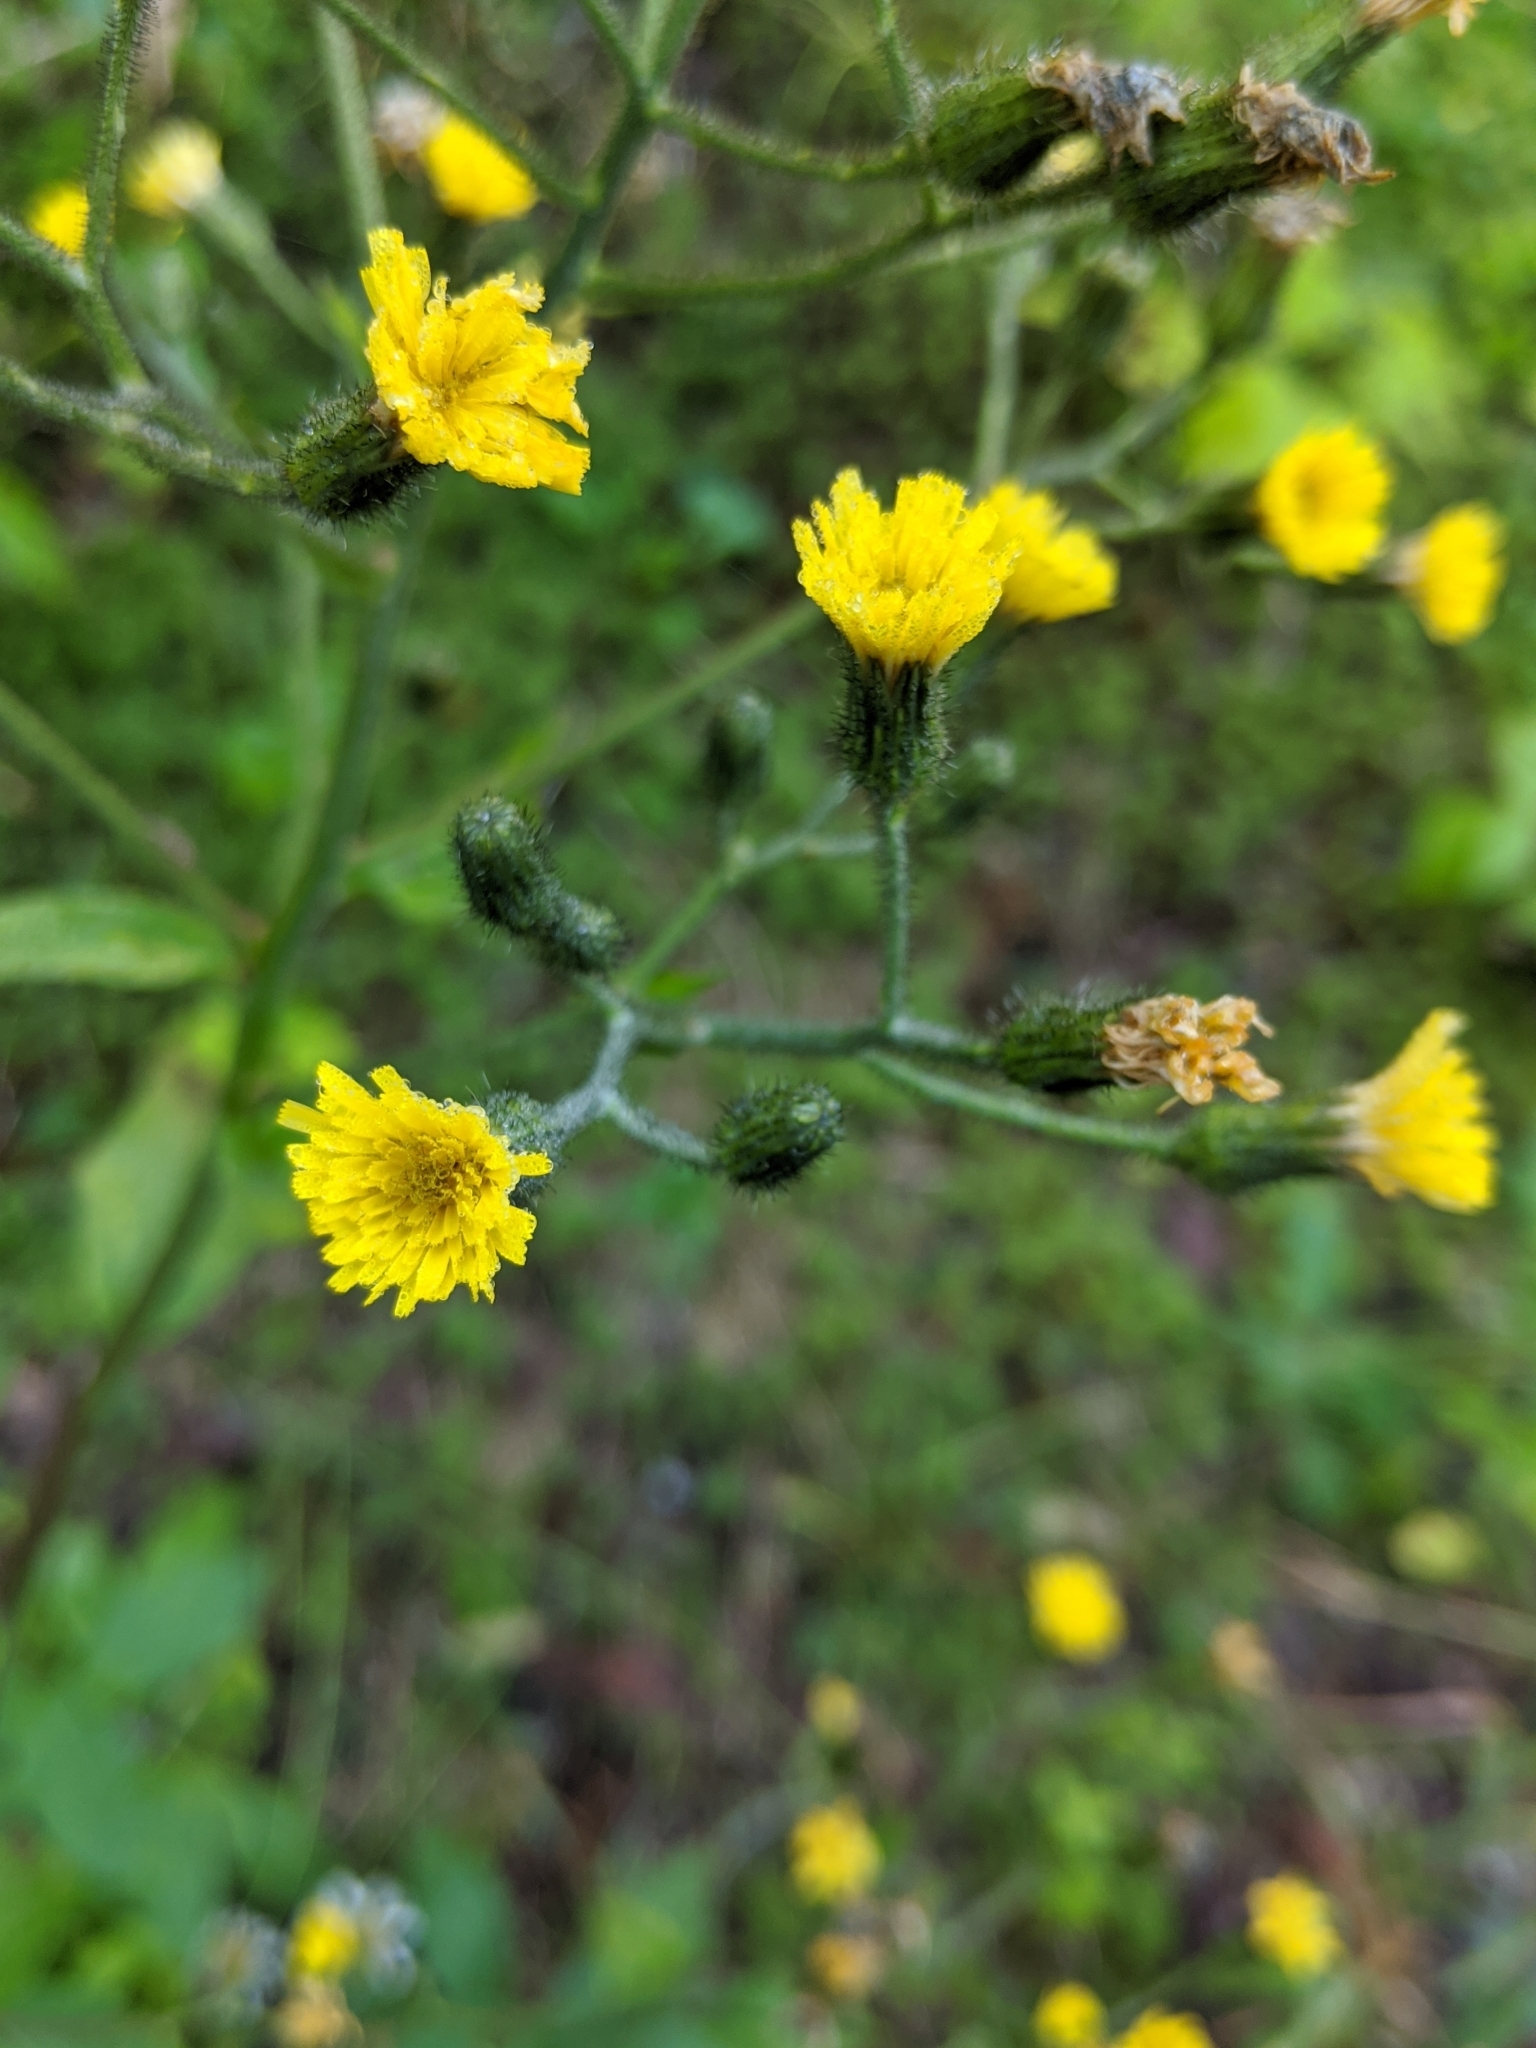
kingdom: Plantae
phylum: Tracheophyta
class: Magnoliopsida
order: Asterales
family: Asteraceae
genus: Hieracium
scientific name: Hieracium scabrum
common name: Rough hawkweed
